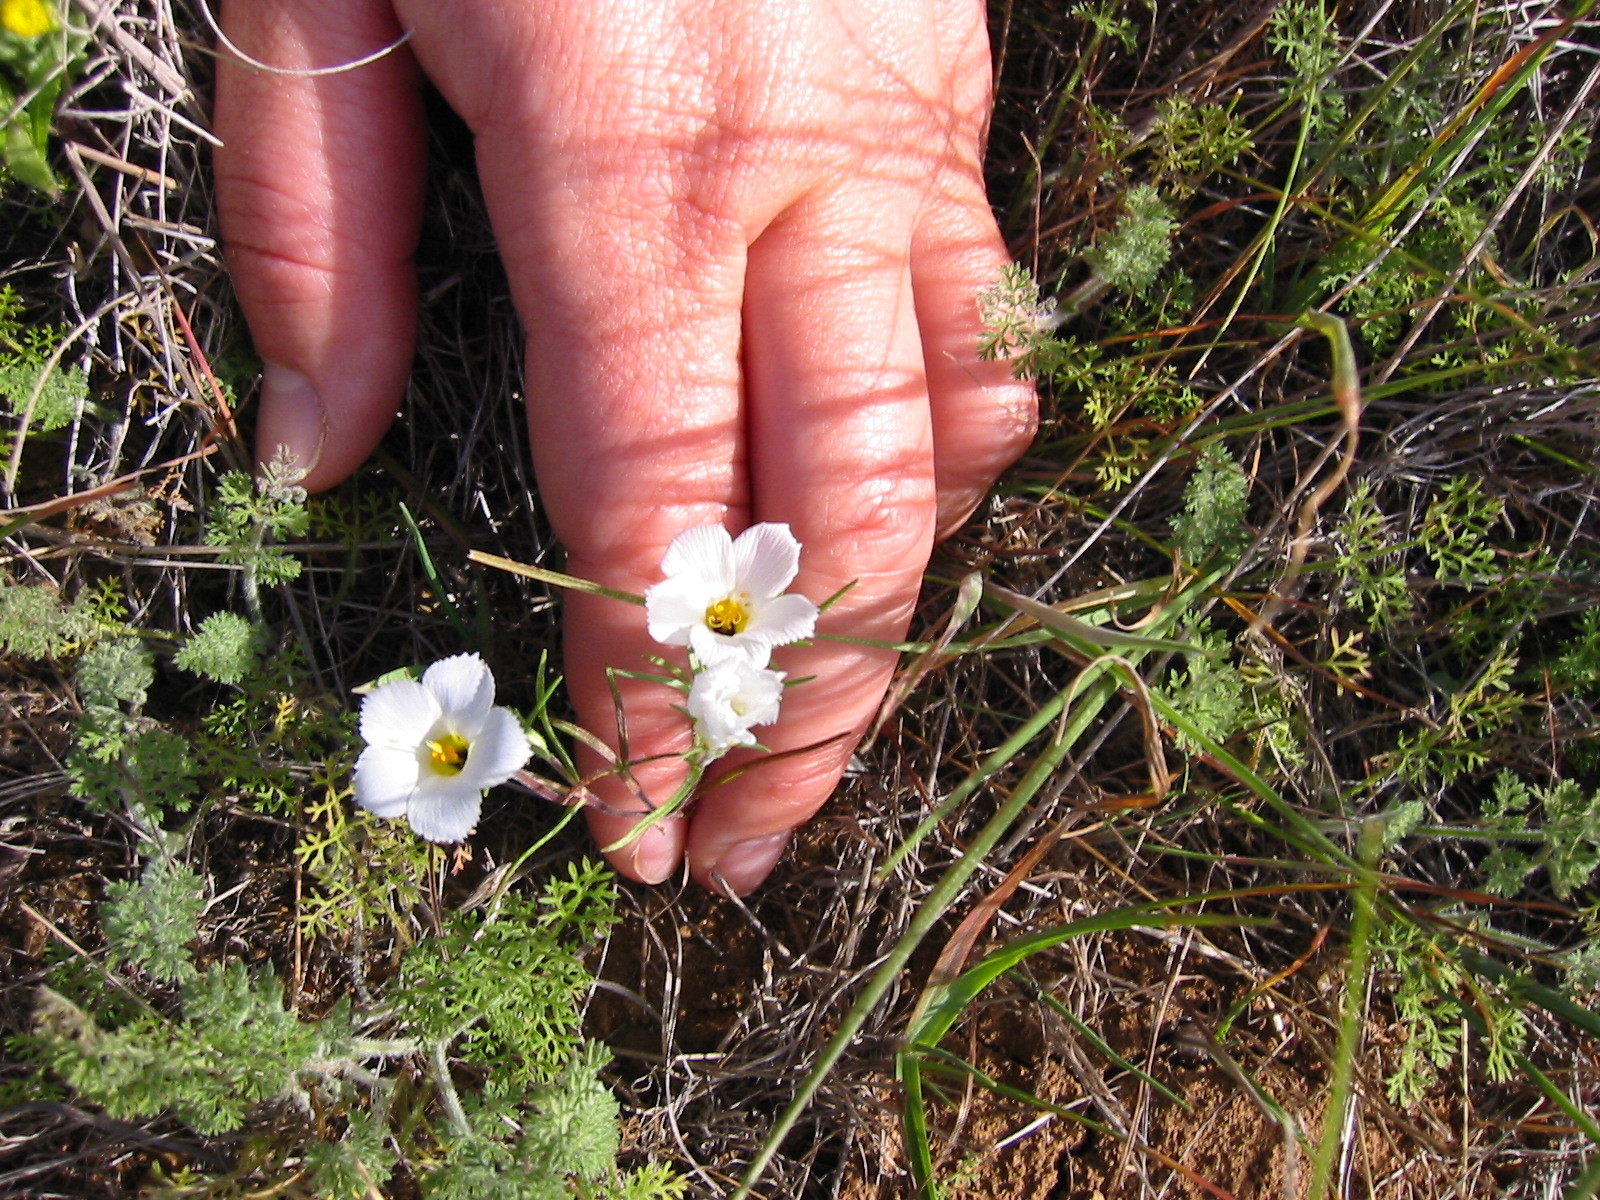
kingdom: Plantae
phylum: Tracheophyta
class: Magnoliopsida
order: Ericales
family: Polemoniaceae
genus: Linanthus
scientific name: Linanthus dianthiflorus
